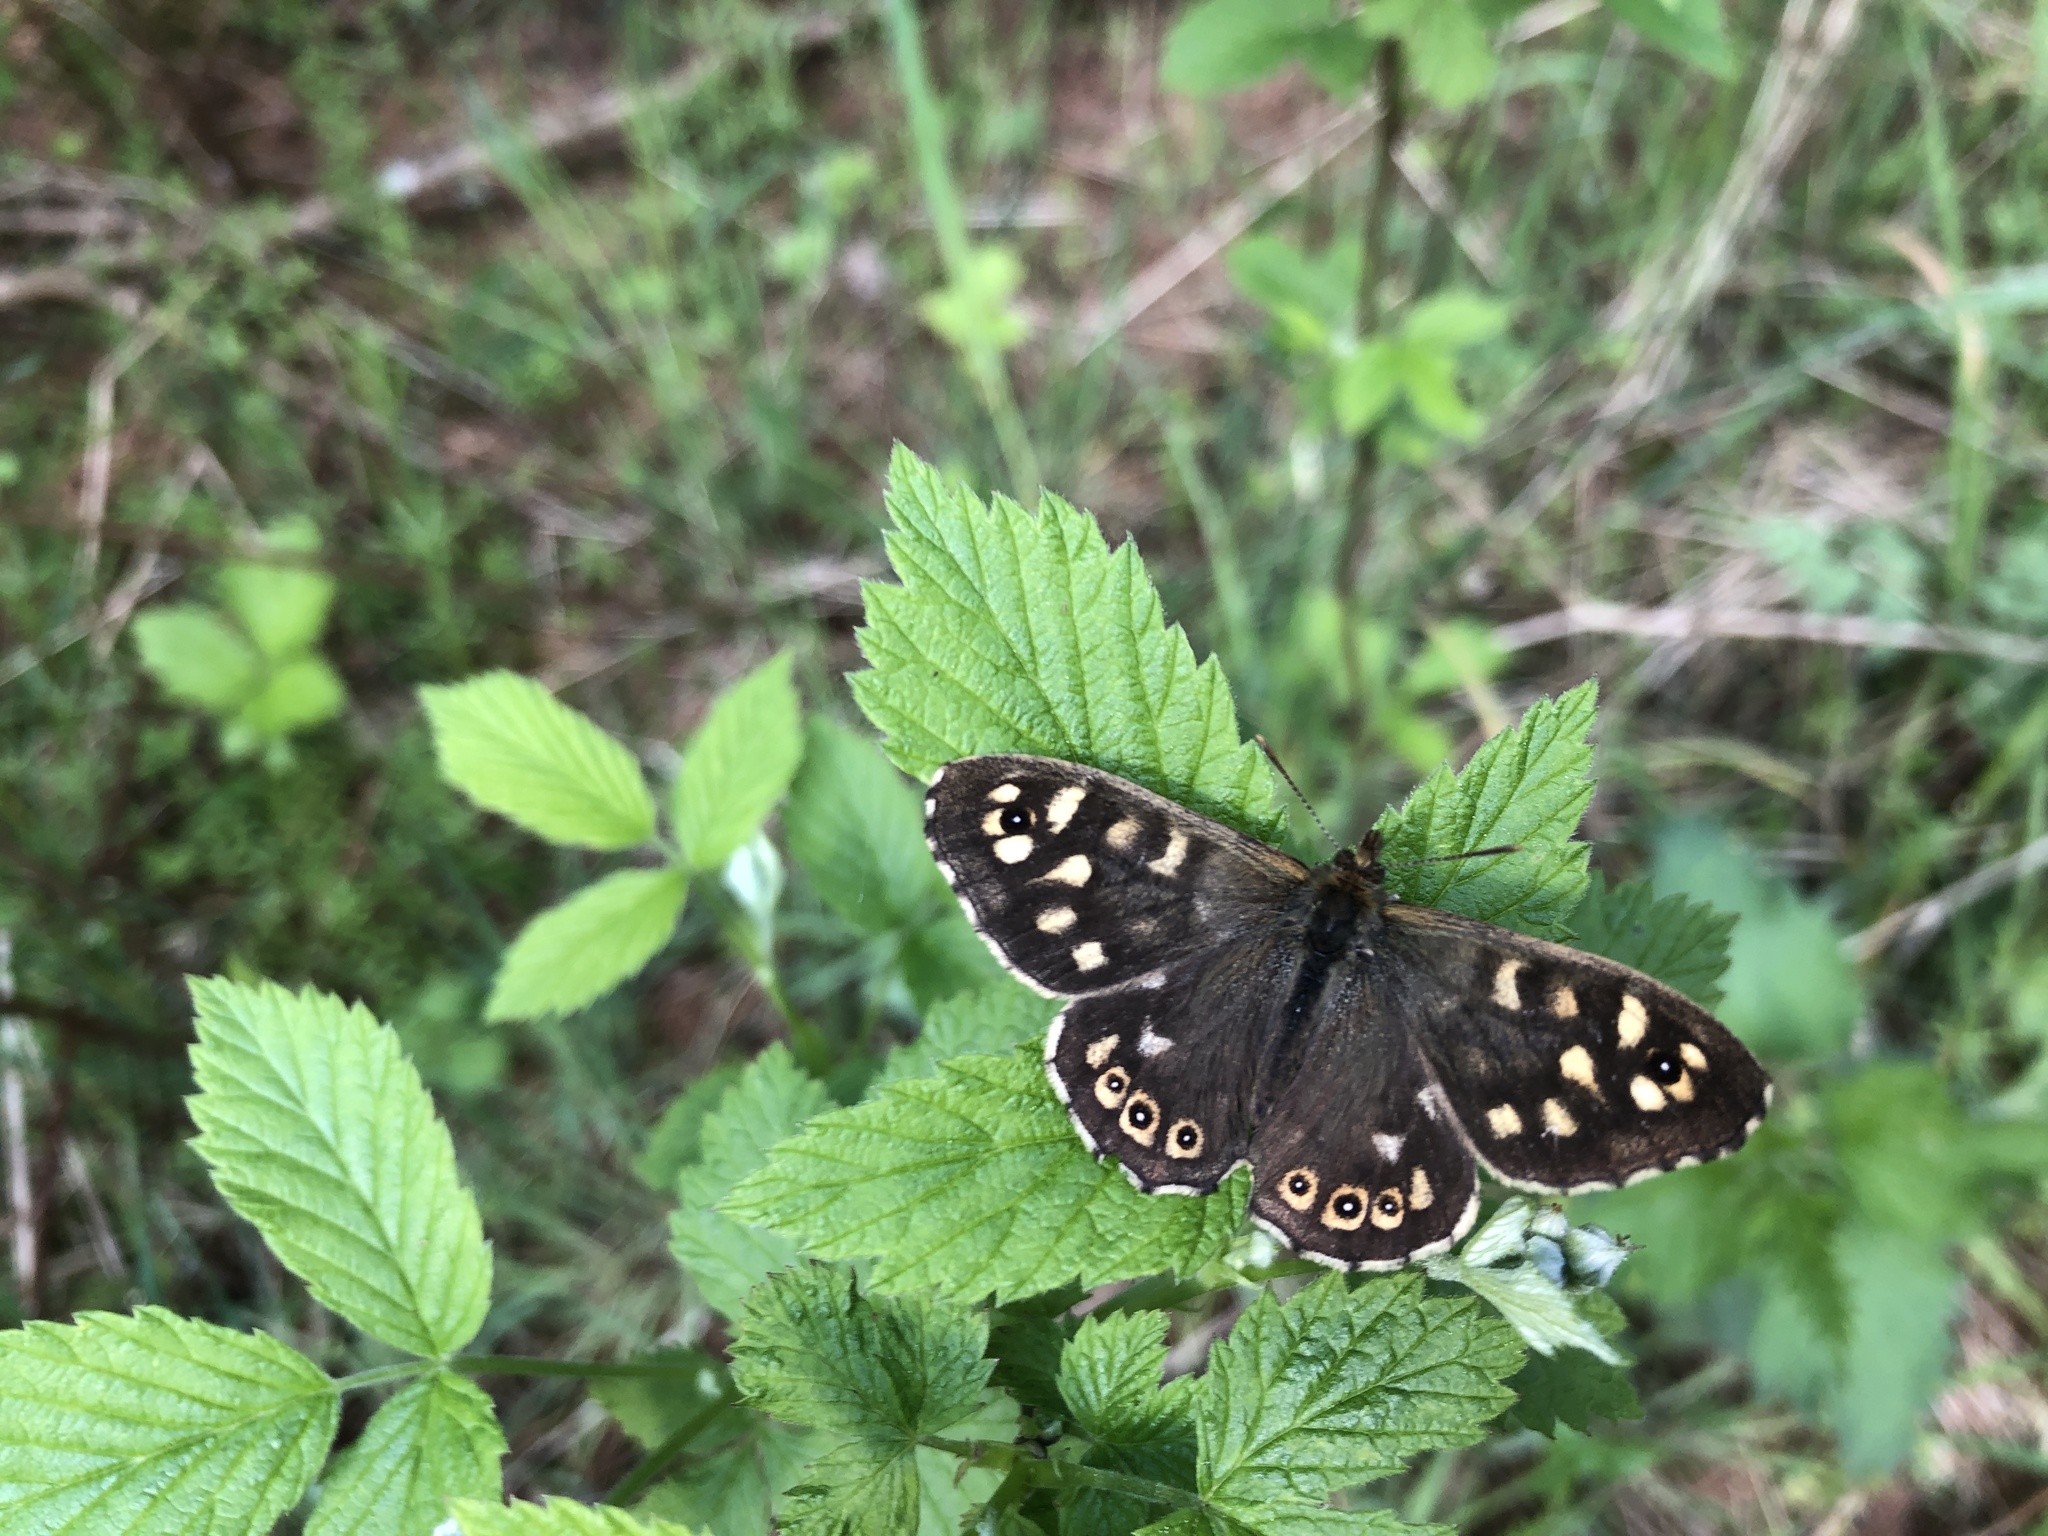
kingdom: Animalia
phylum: Arthropoda
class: Insecta
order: Lepidoptera
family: Nymphalidae
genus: Pararge
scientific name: Pararge aegeria
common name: Speckled wood
